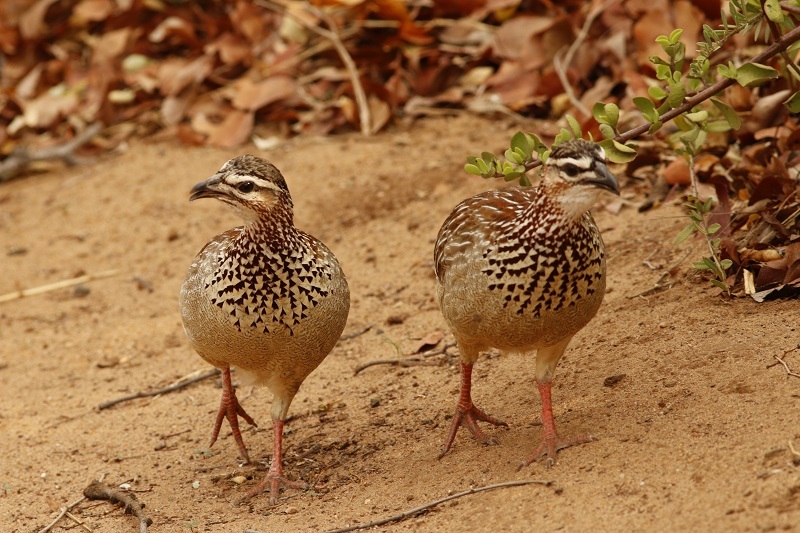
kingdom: Animalia
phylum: Chordata
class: Aves
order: Galliformes
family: Phasianidae
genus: Ortygornis
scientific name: Ortygornis sephaena
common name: Crested francolin
